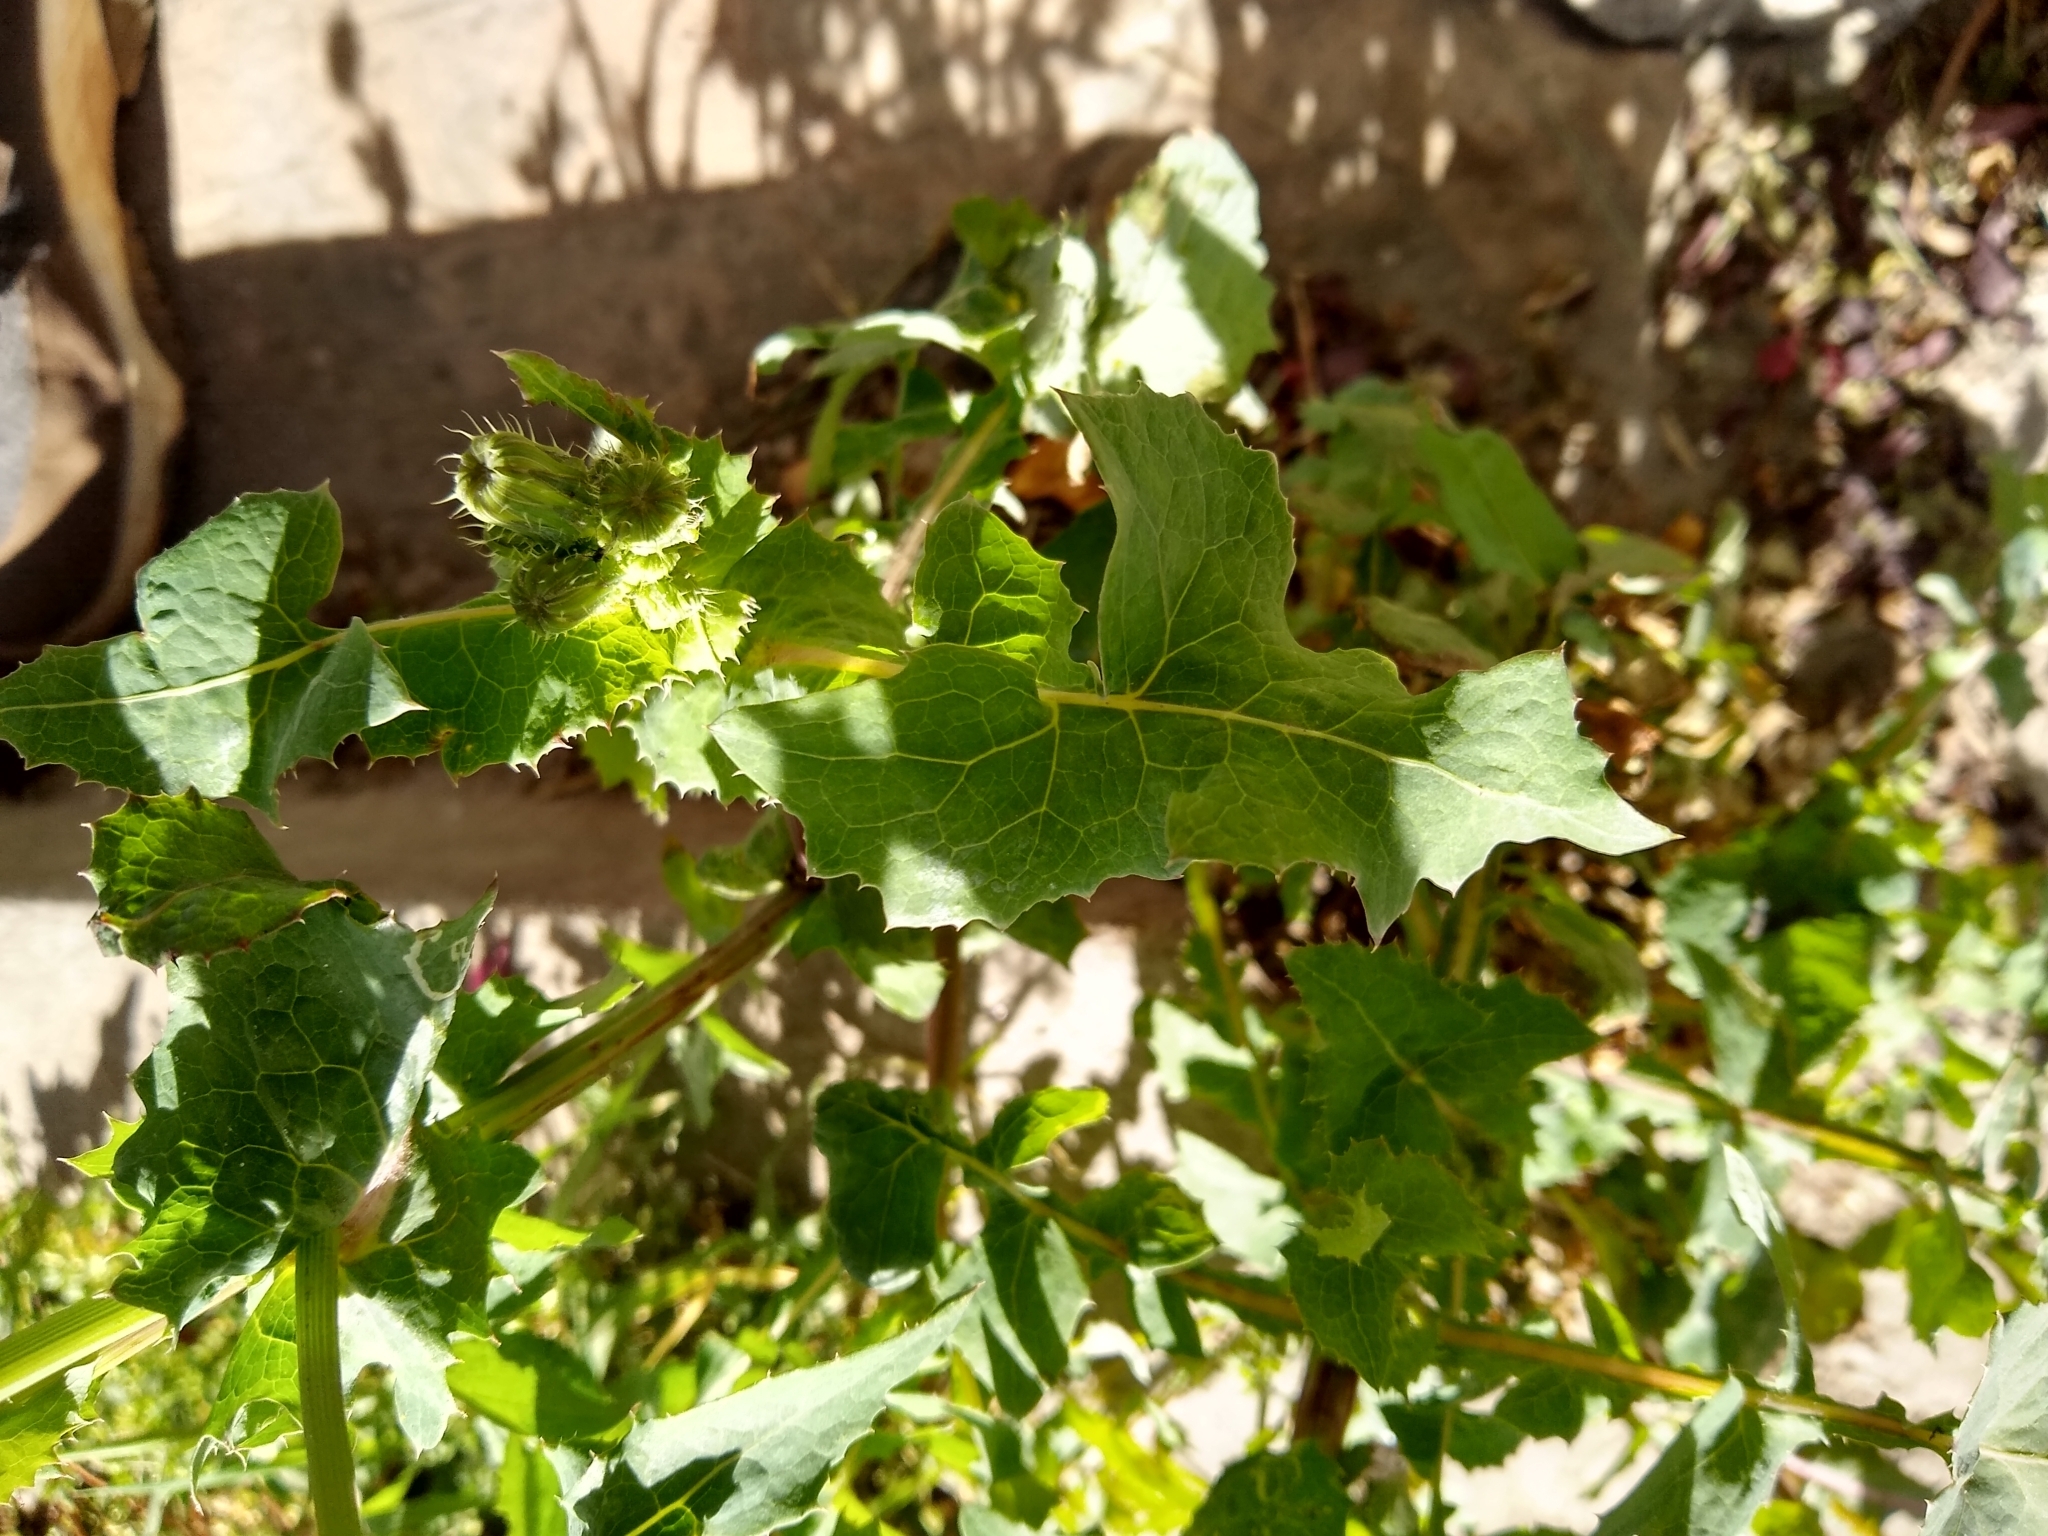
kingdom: Plantae
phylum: Tracheophyta
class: Magnoliopsida
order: Asterales
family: Asteraceae
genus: Sonchus
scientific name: Sonchus oleraceus
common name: Common sowthistle
